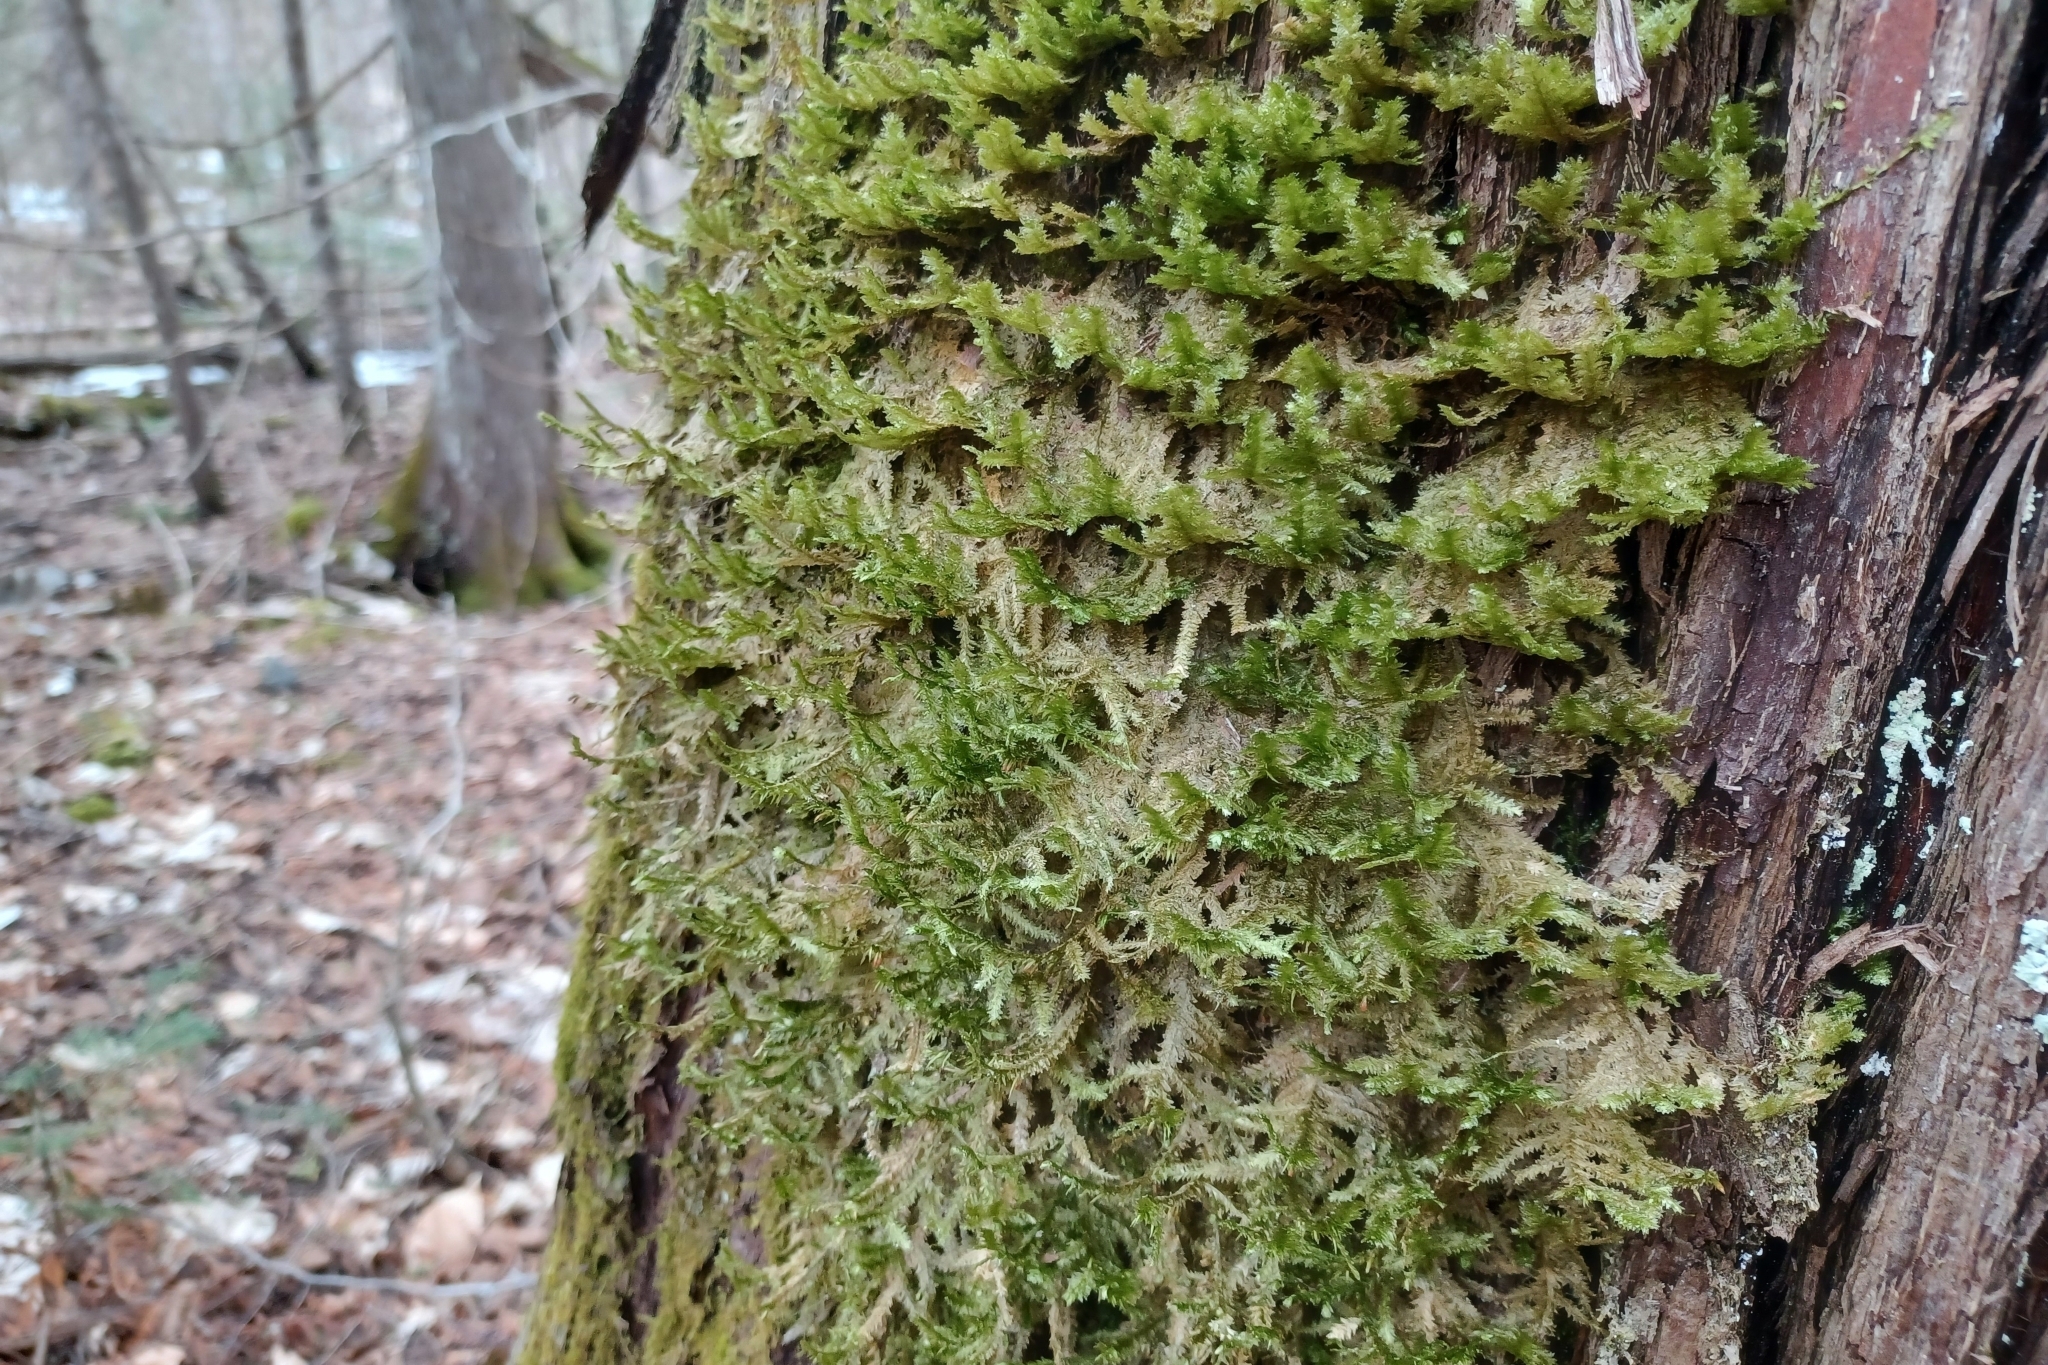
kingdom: Plantae
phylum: Bryophyta
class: Bryopsida
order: Hypnales
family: Neckeraceae
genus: Neckera
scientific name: Neckera pennata
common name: Feathery neckera
